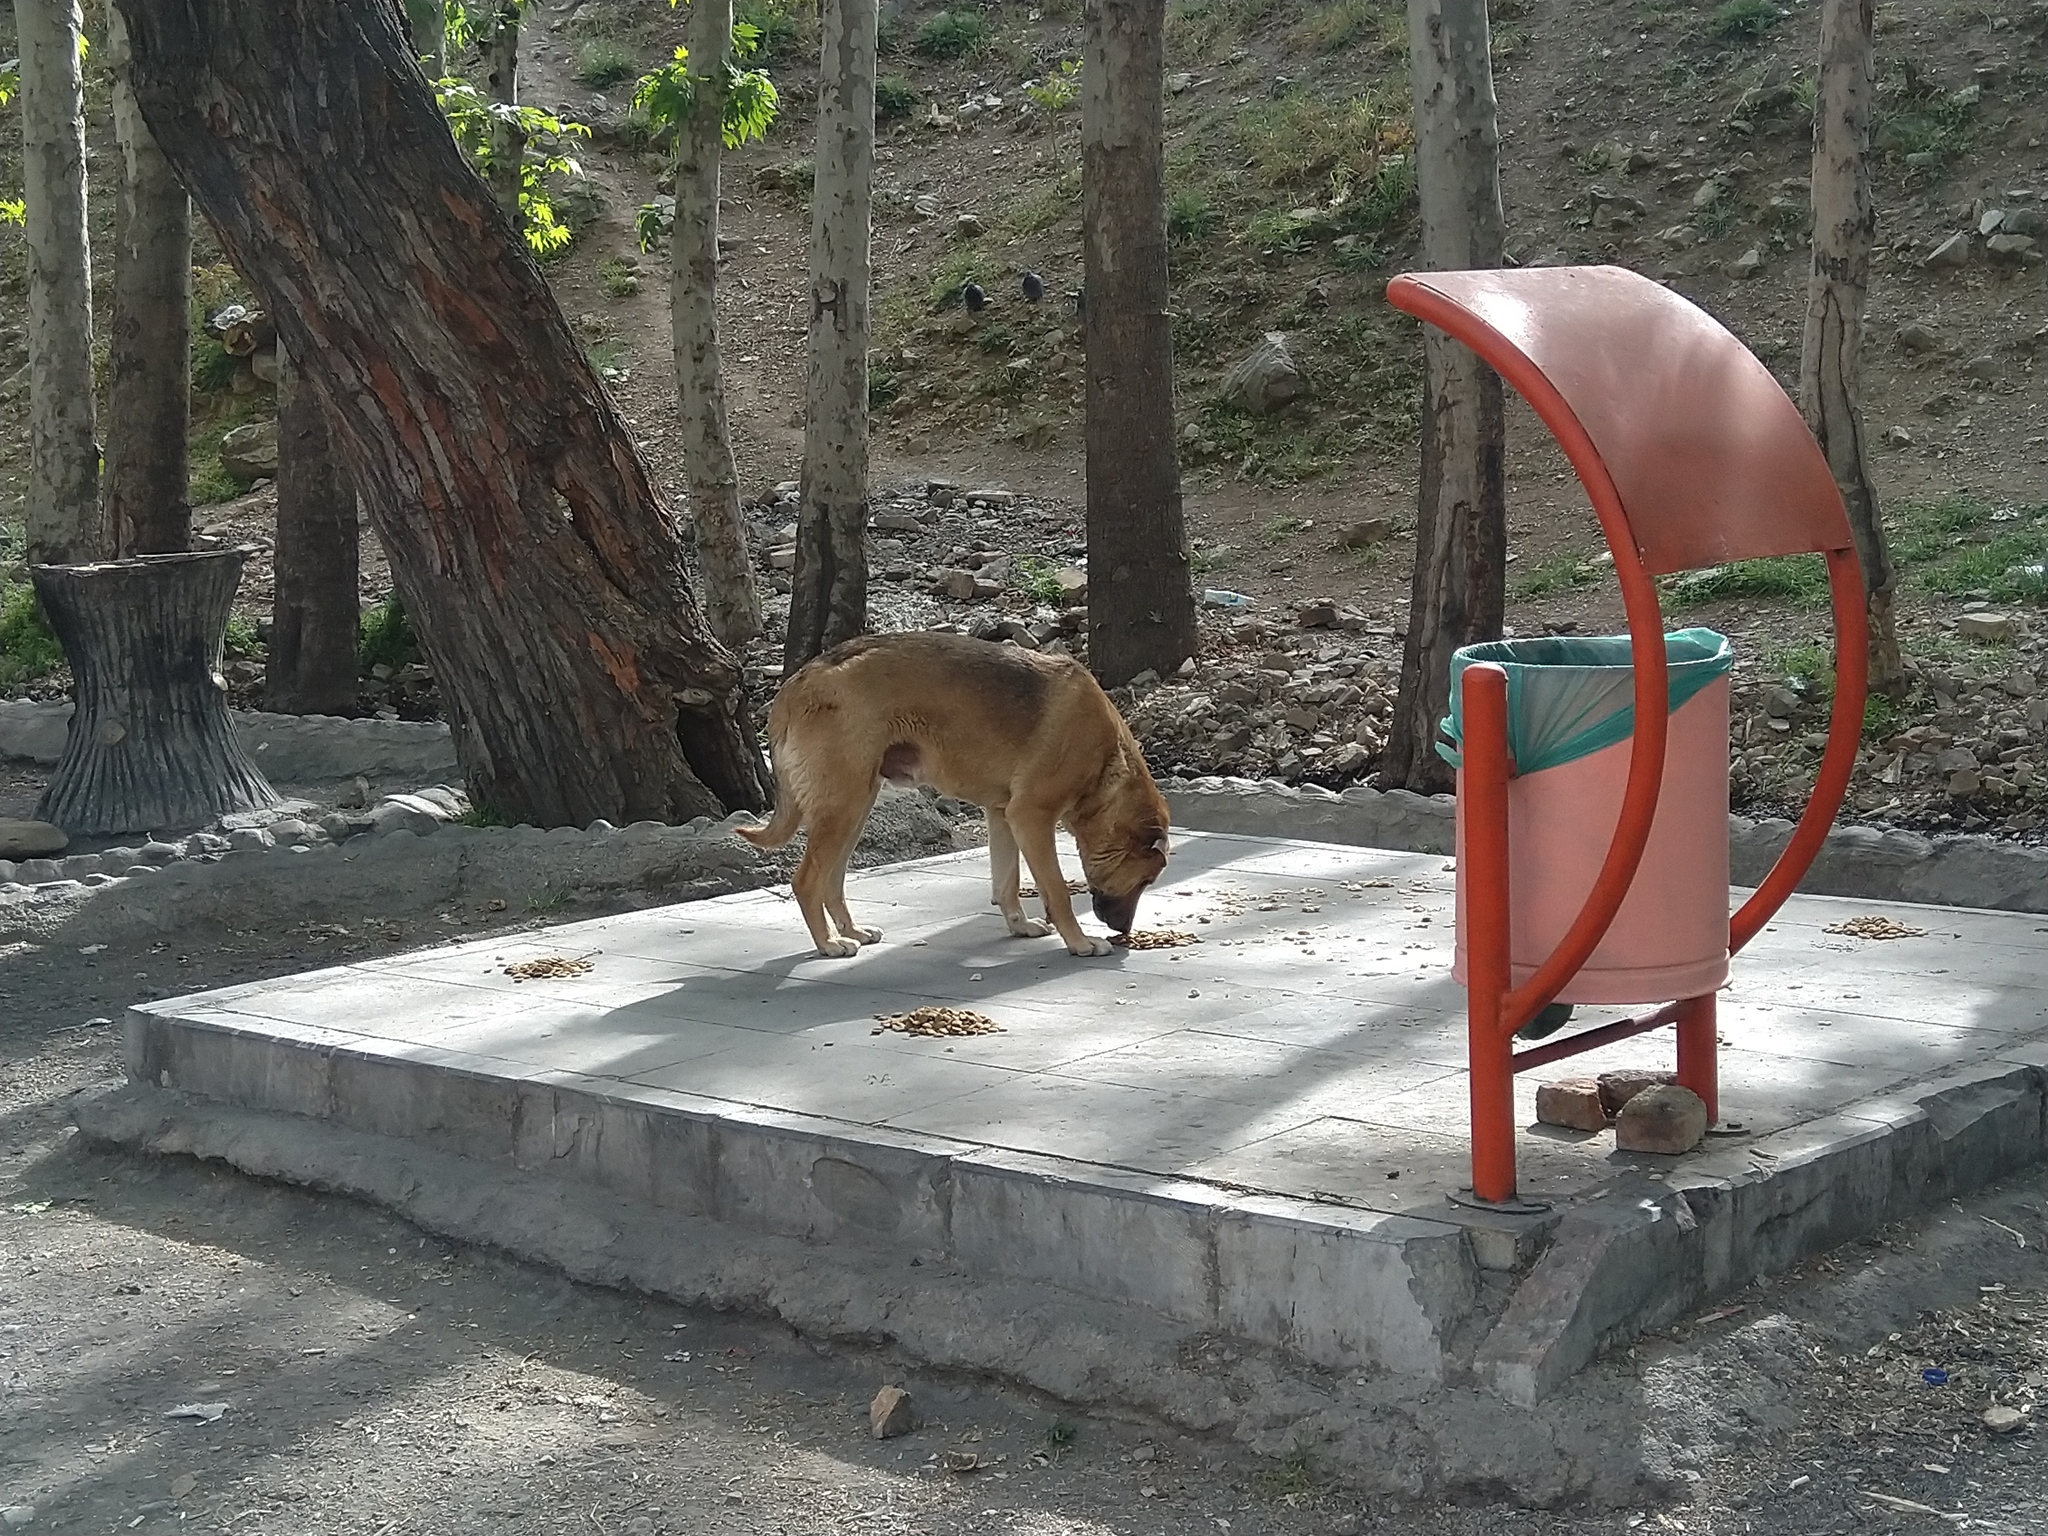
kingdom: Animalia
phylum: Chordata
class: Mammalia
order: Carnivora
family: Canidae
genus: Canis
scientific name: Canis lupus
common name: Gray wolf
